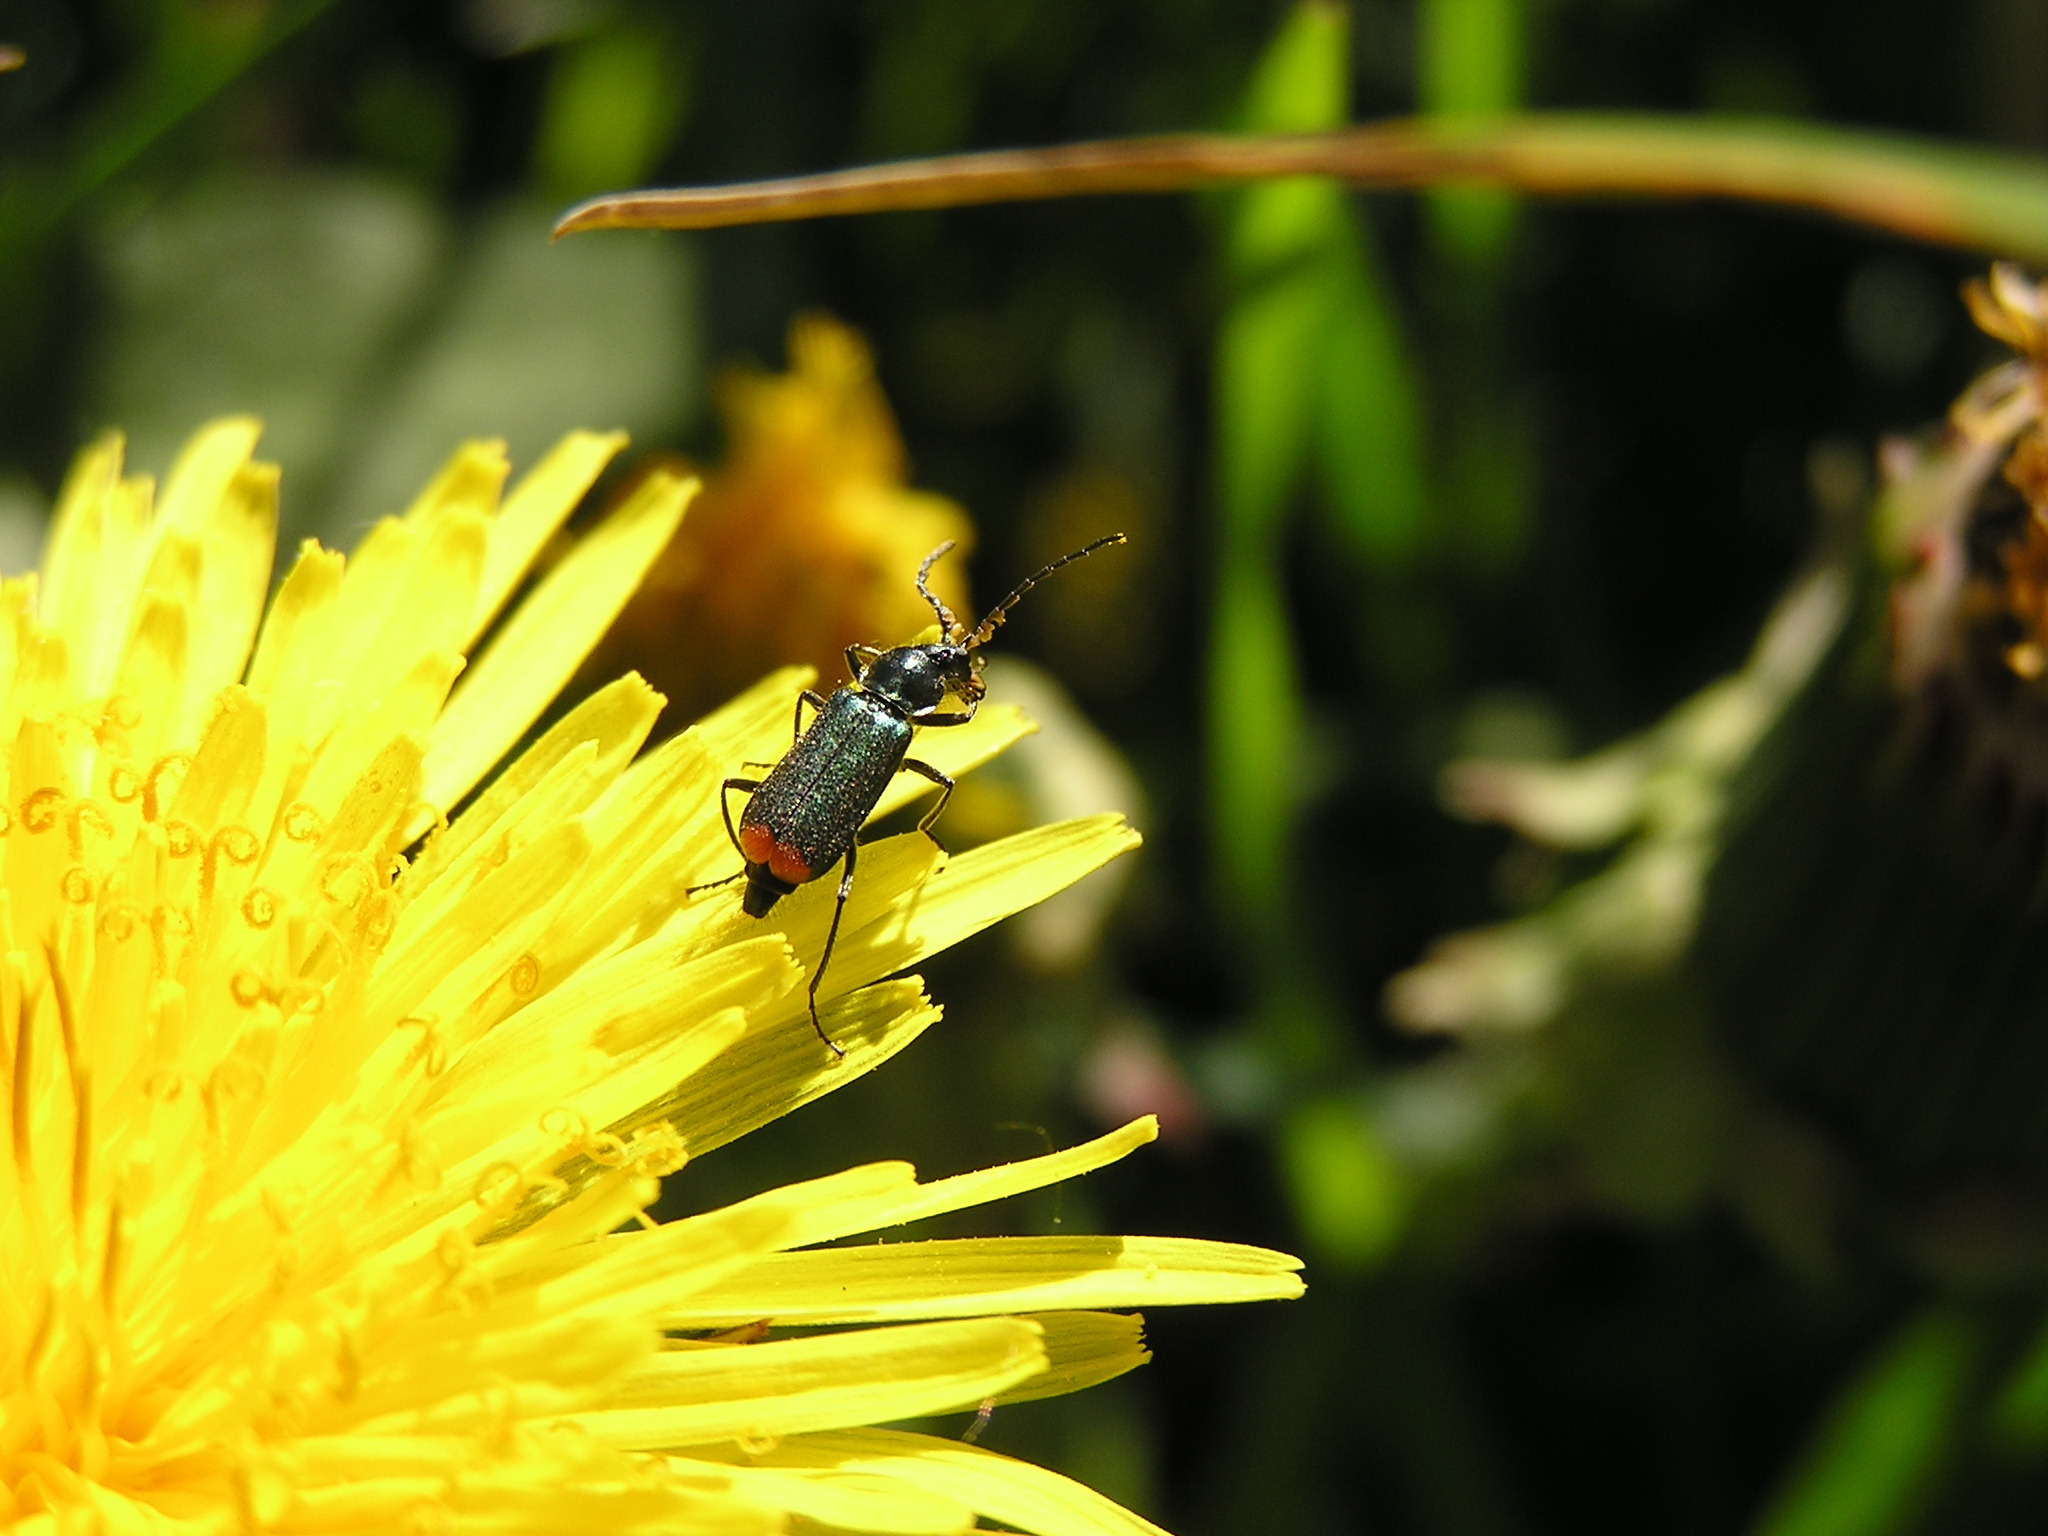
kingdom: Animalia
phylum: Arthropoda
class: Insecta
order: Coleoptera
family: Melyridae
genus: Malachius
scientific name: Malachius bipustulatus
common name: Malachite beetle
